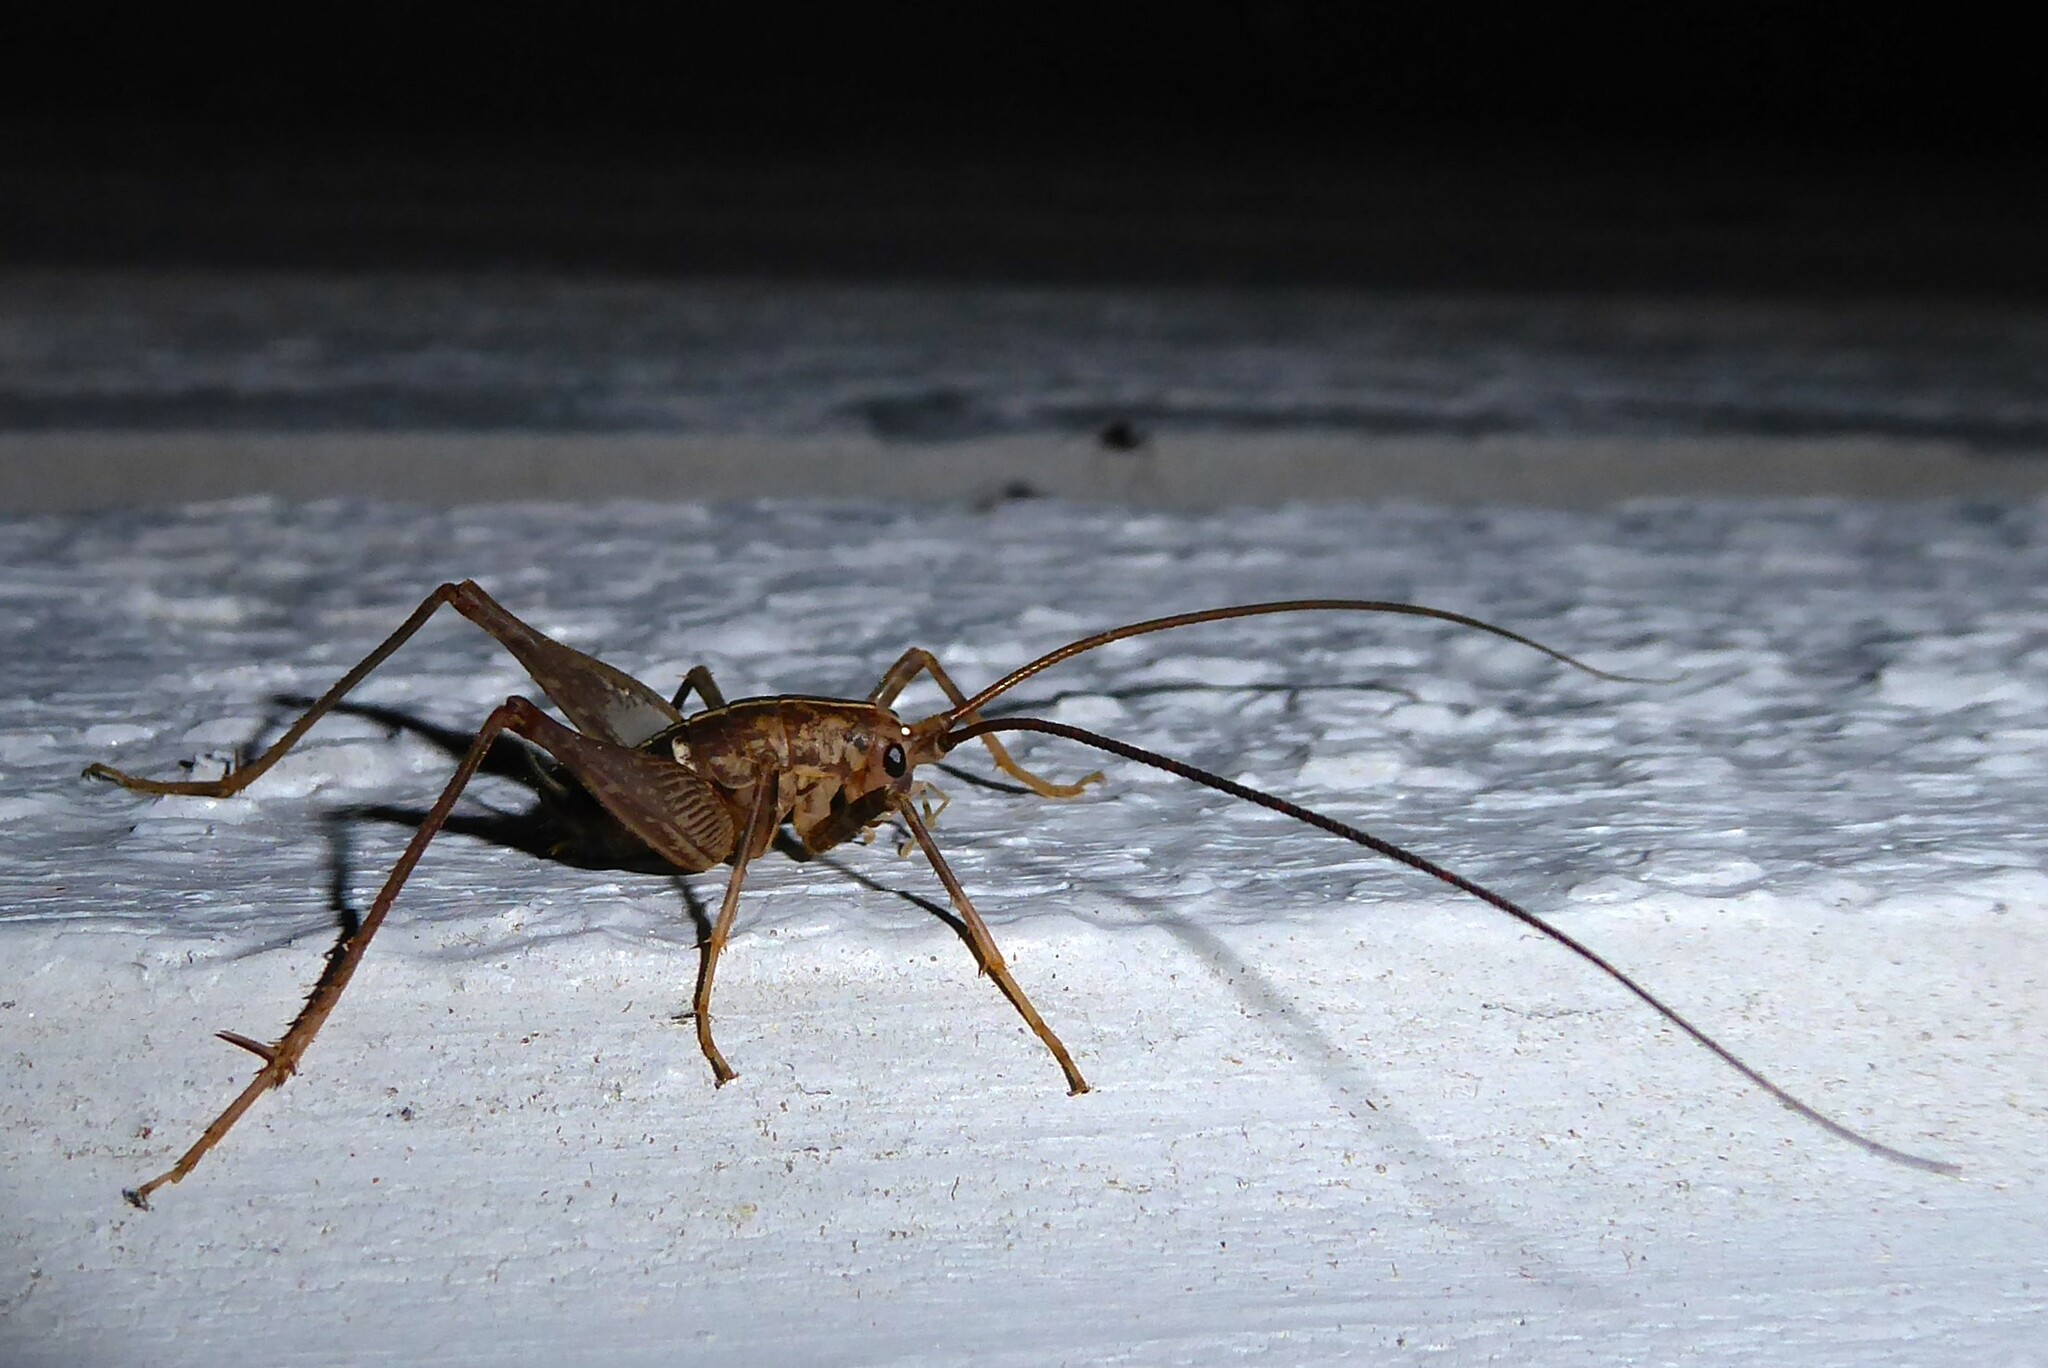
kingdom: Animalia
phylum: Arthropoda
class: Insecta
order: Orthoptera
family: Rhaphidophoridae
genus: Pleioplectron
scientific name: Pleioplectron simplex
